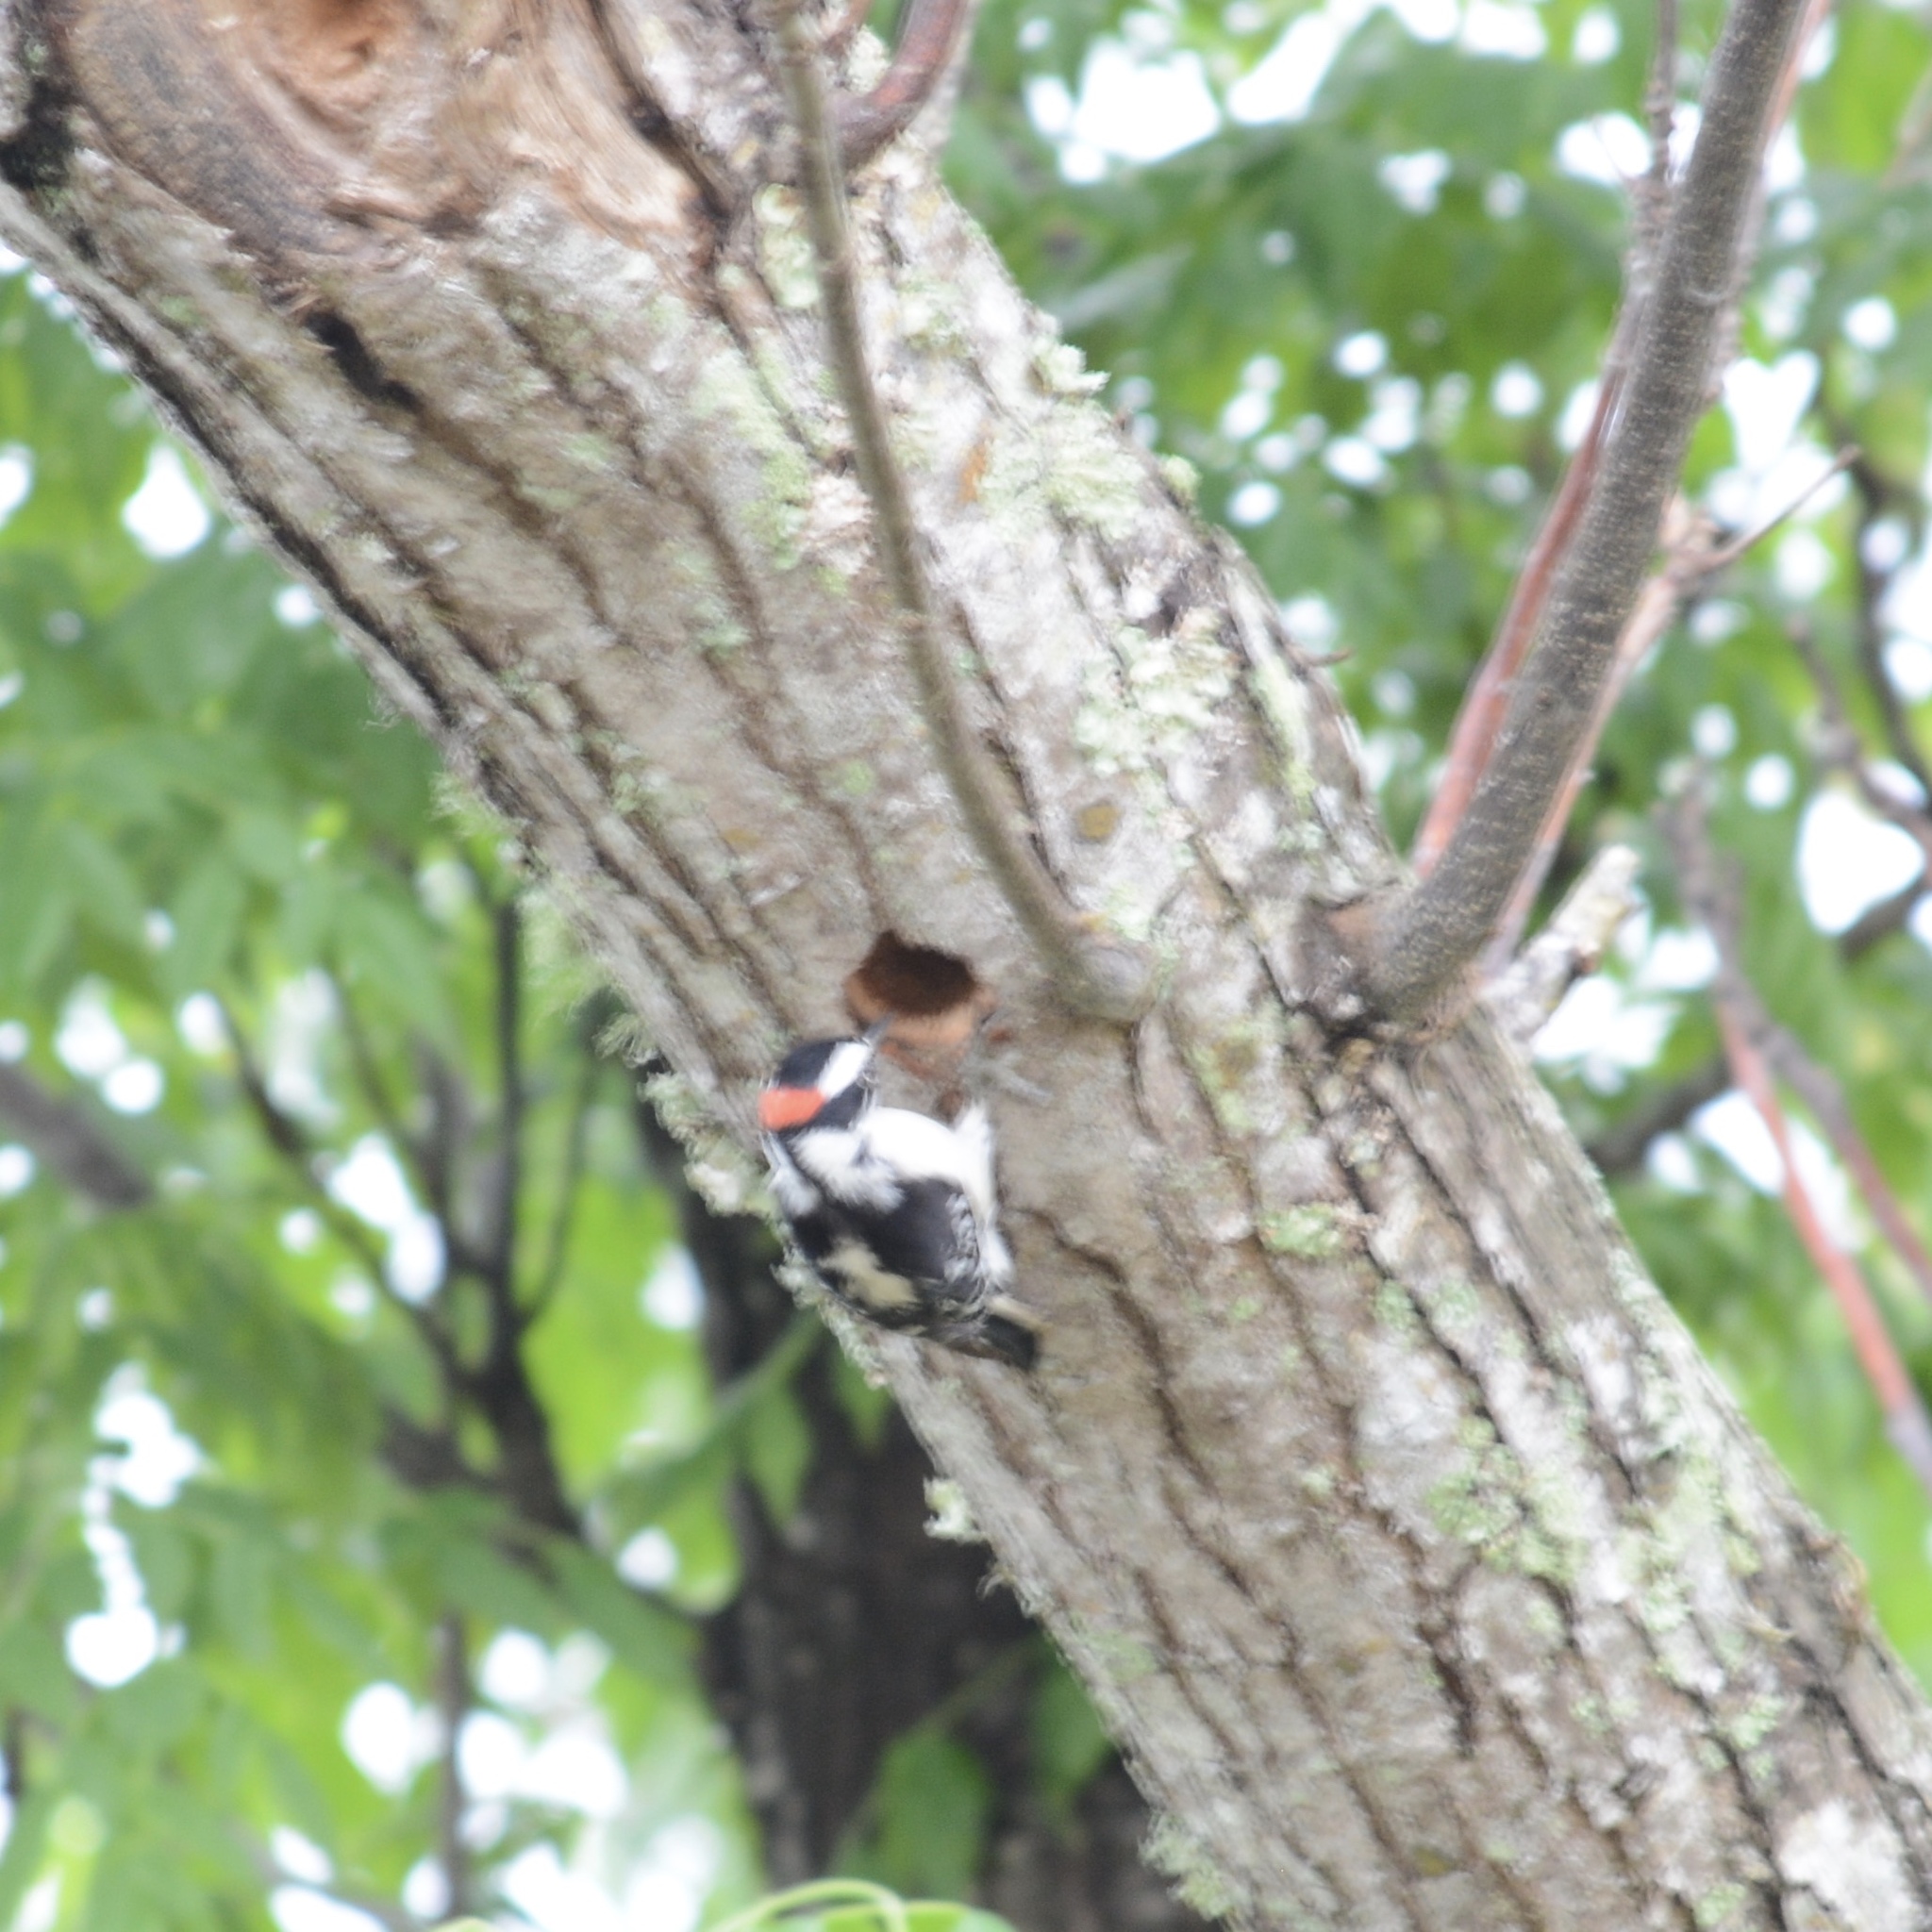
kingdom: Animalia
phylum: Chordata
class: Aves
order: Piciformes
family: Picidae
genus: Dryobates
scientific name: Dryobates pubescens
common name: Downy woodpecker
